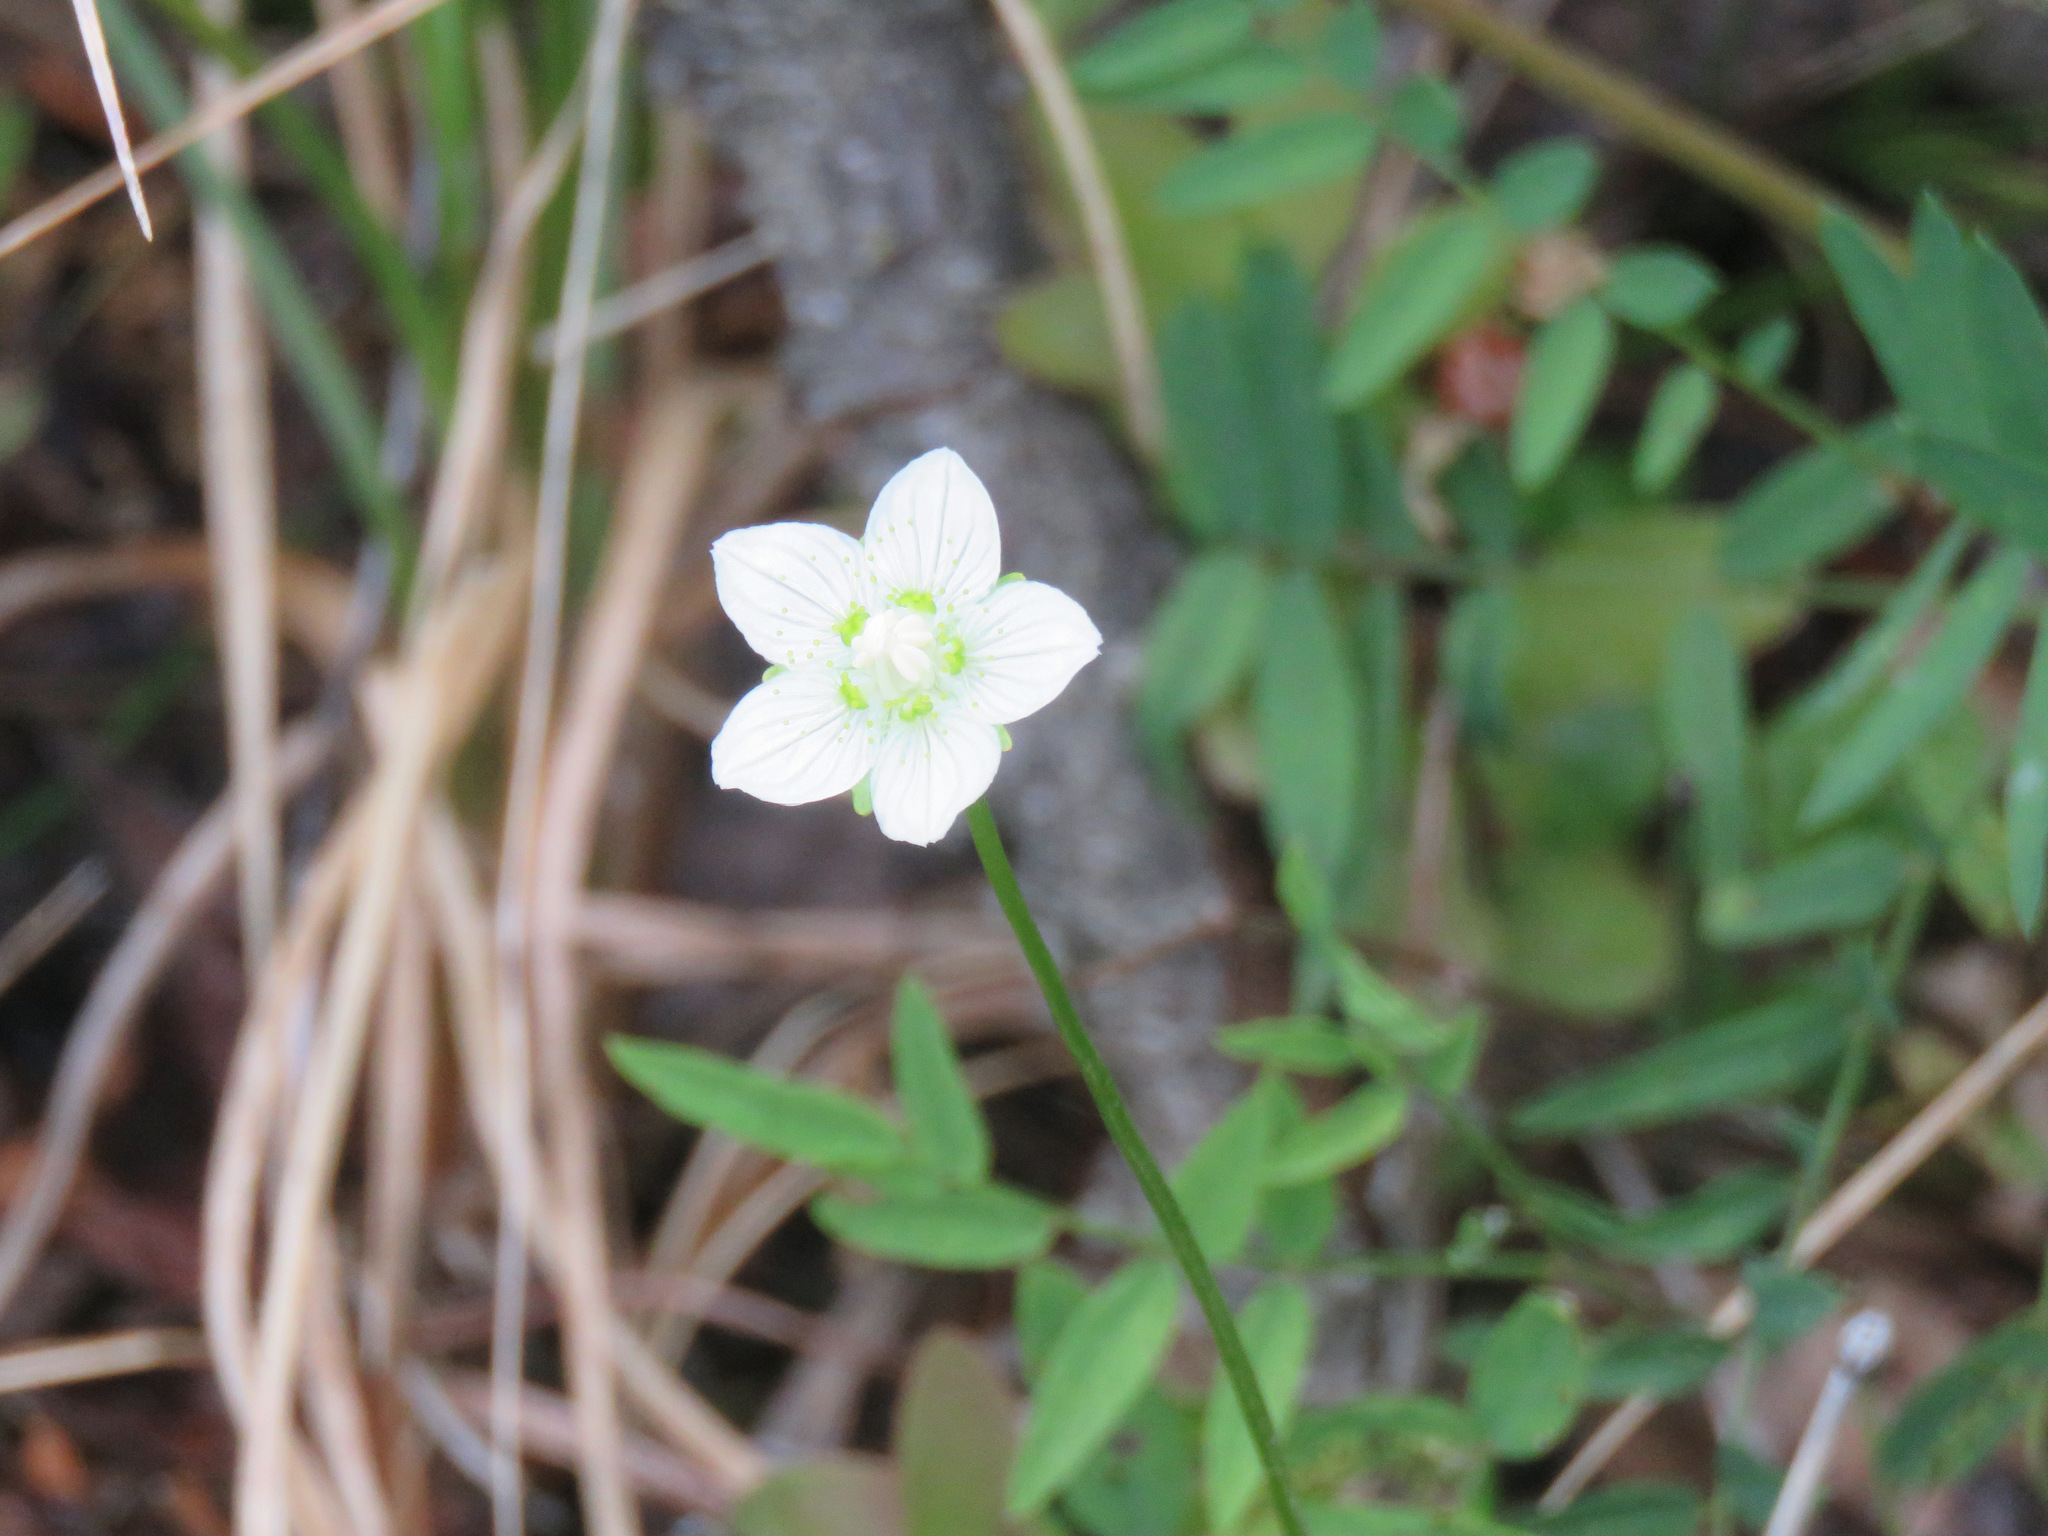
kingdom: Plantae
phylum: Tracheophyta
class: Magnoliopsida
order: Celastrales
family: Parnassiaceae
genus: Parnassia
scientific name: Parnassia palustris
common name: Grass-of-parnassus
